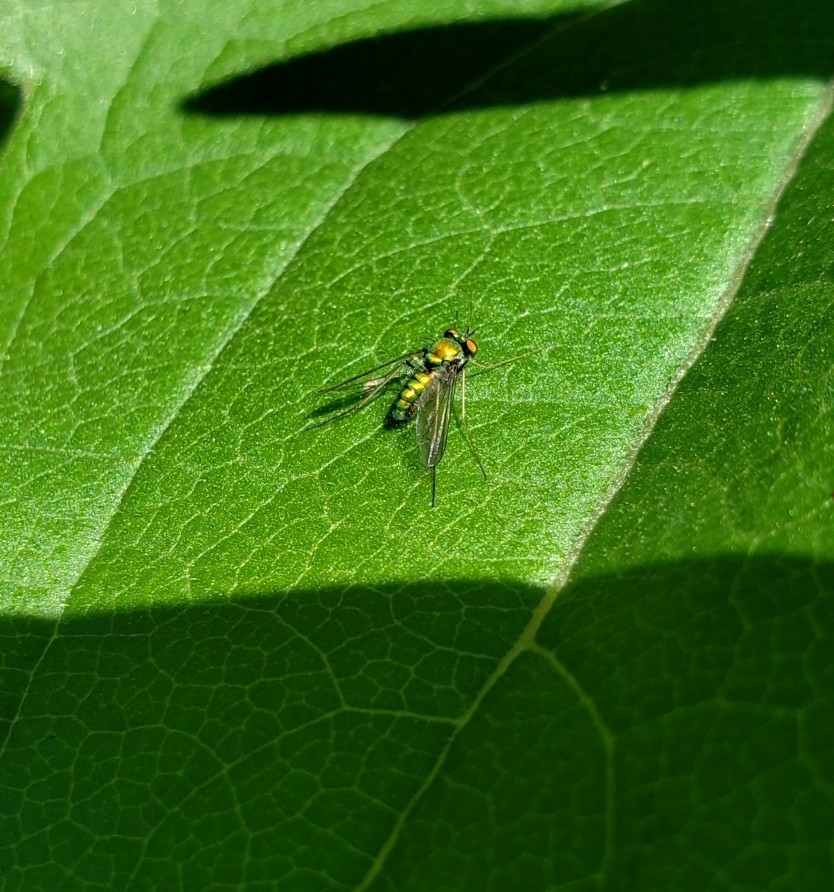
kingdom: Animalia
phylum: Arthropoda
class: Insecta
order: Diptera
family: Dolichopodidae
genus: Condylostylus
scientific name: Condylostylus
